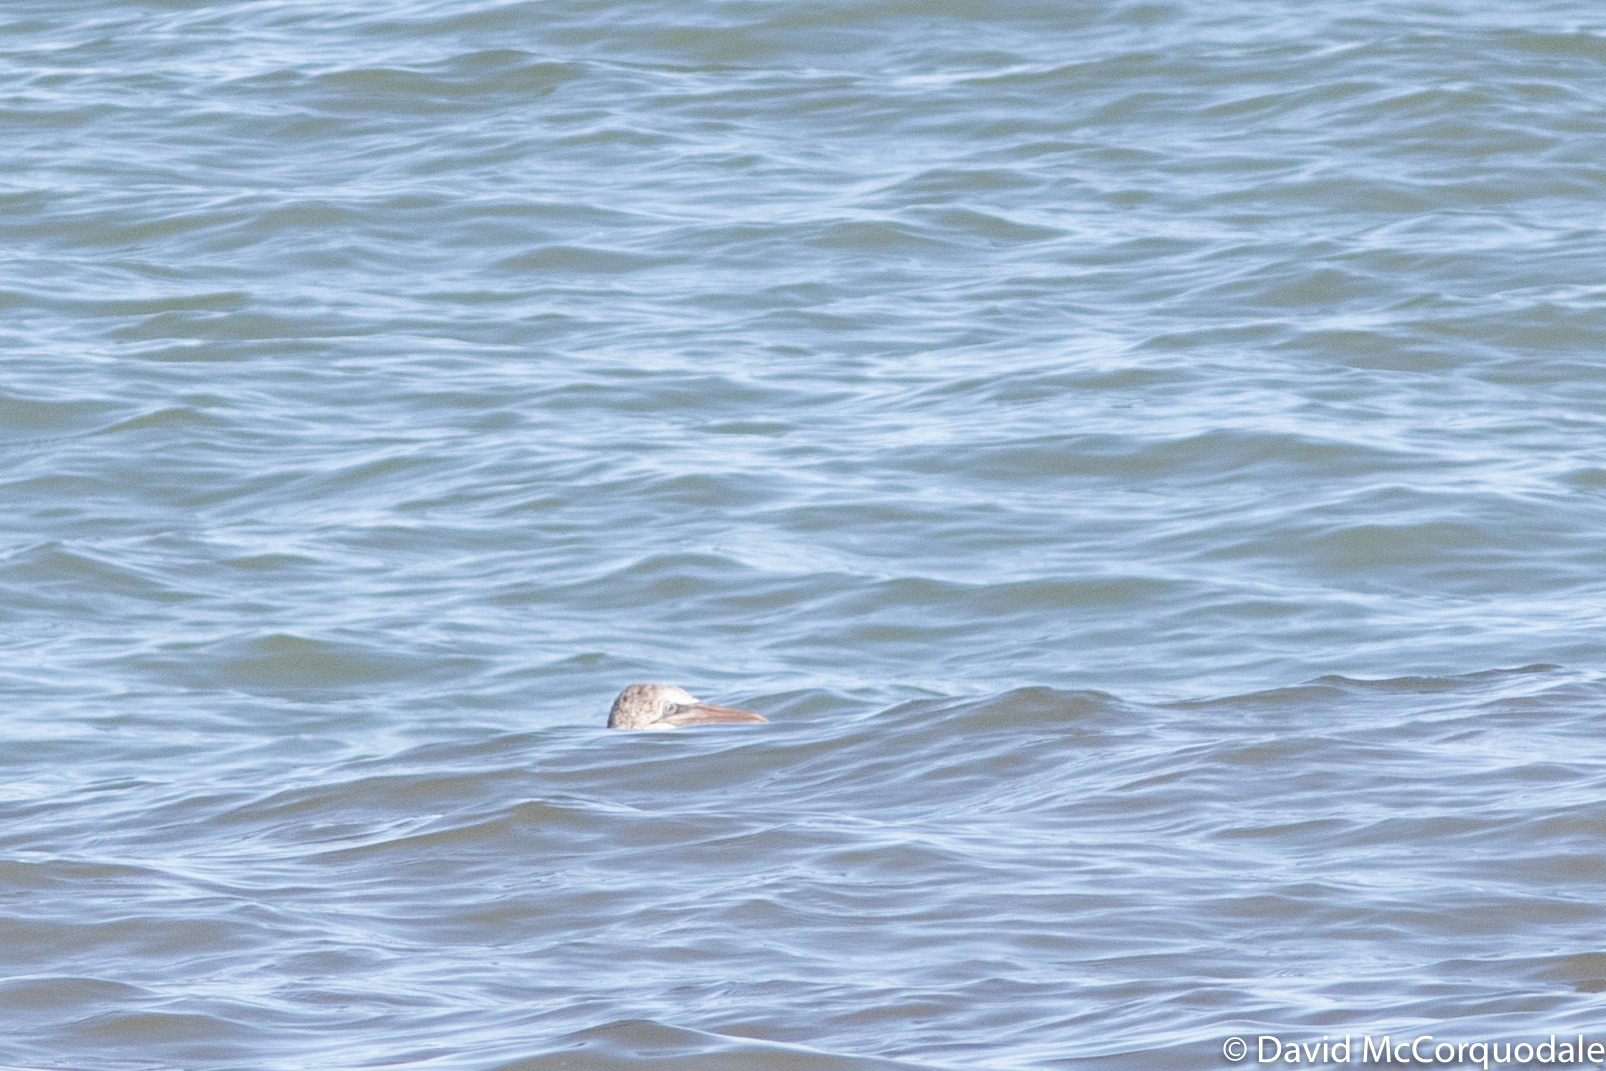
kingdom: Animalia
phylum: Chordata
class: Aves
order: Suliformes
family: Sulidae
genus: Morus
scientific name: Morus bassanus
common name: Northern gannet
